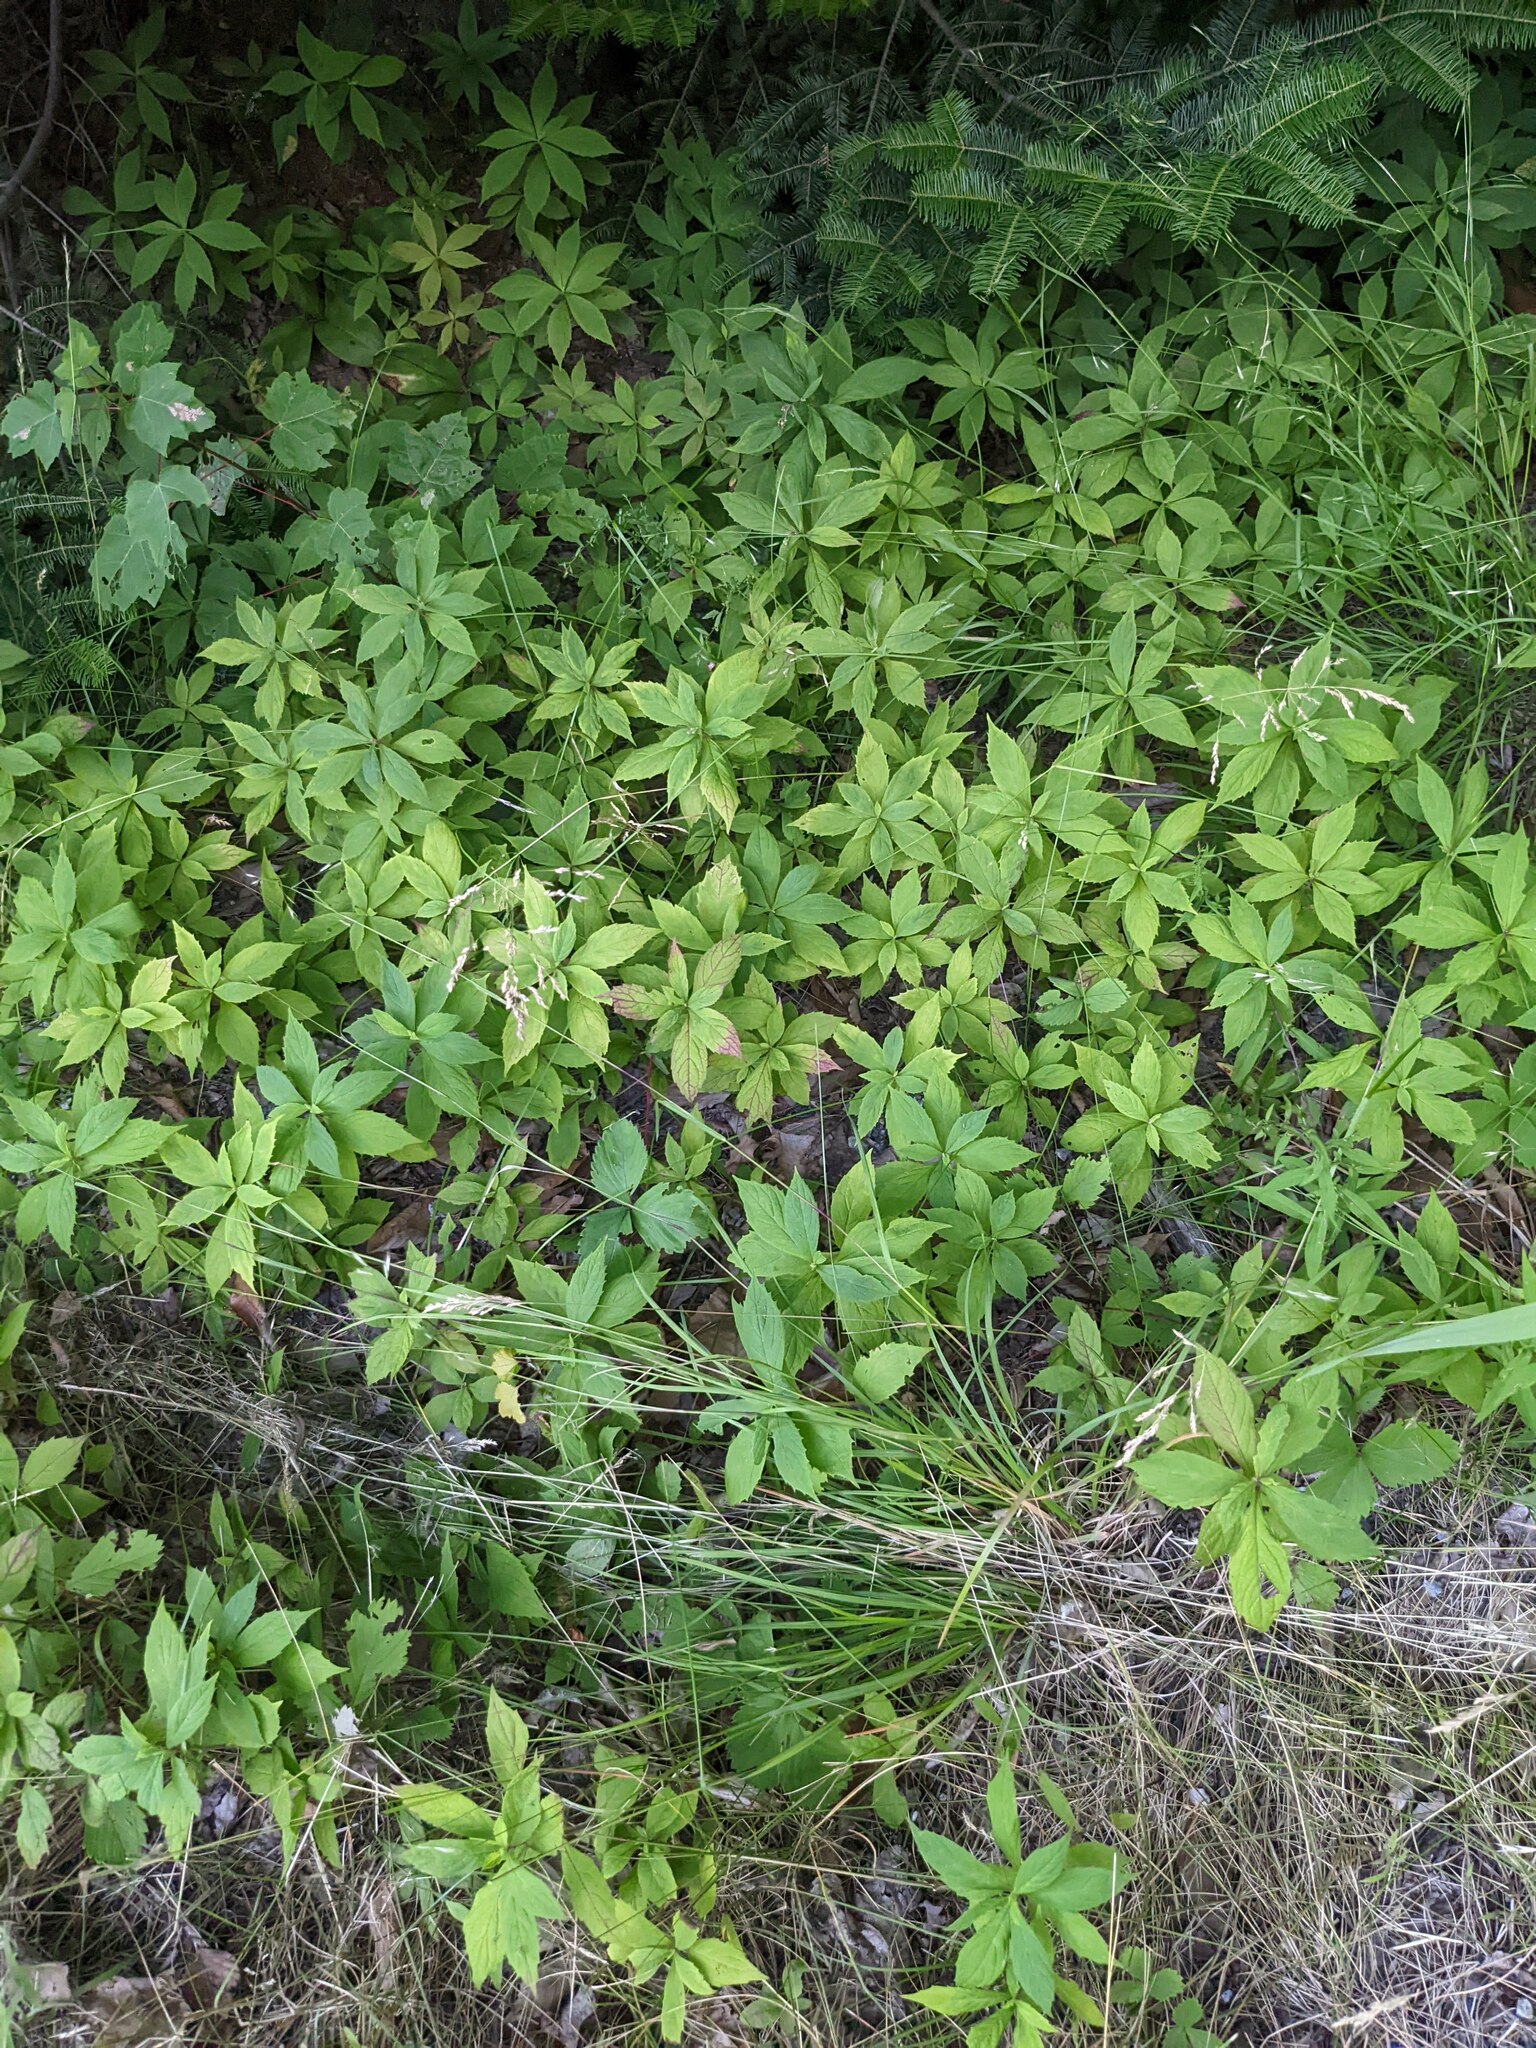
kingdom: Plantae
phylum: Tracheophyta
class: Magnoliopsida
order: Asterales
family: Asteraceae
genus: Oclemena
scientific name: Oclemena acuminata
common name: Mountain aster
